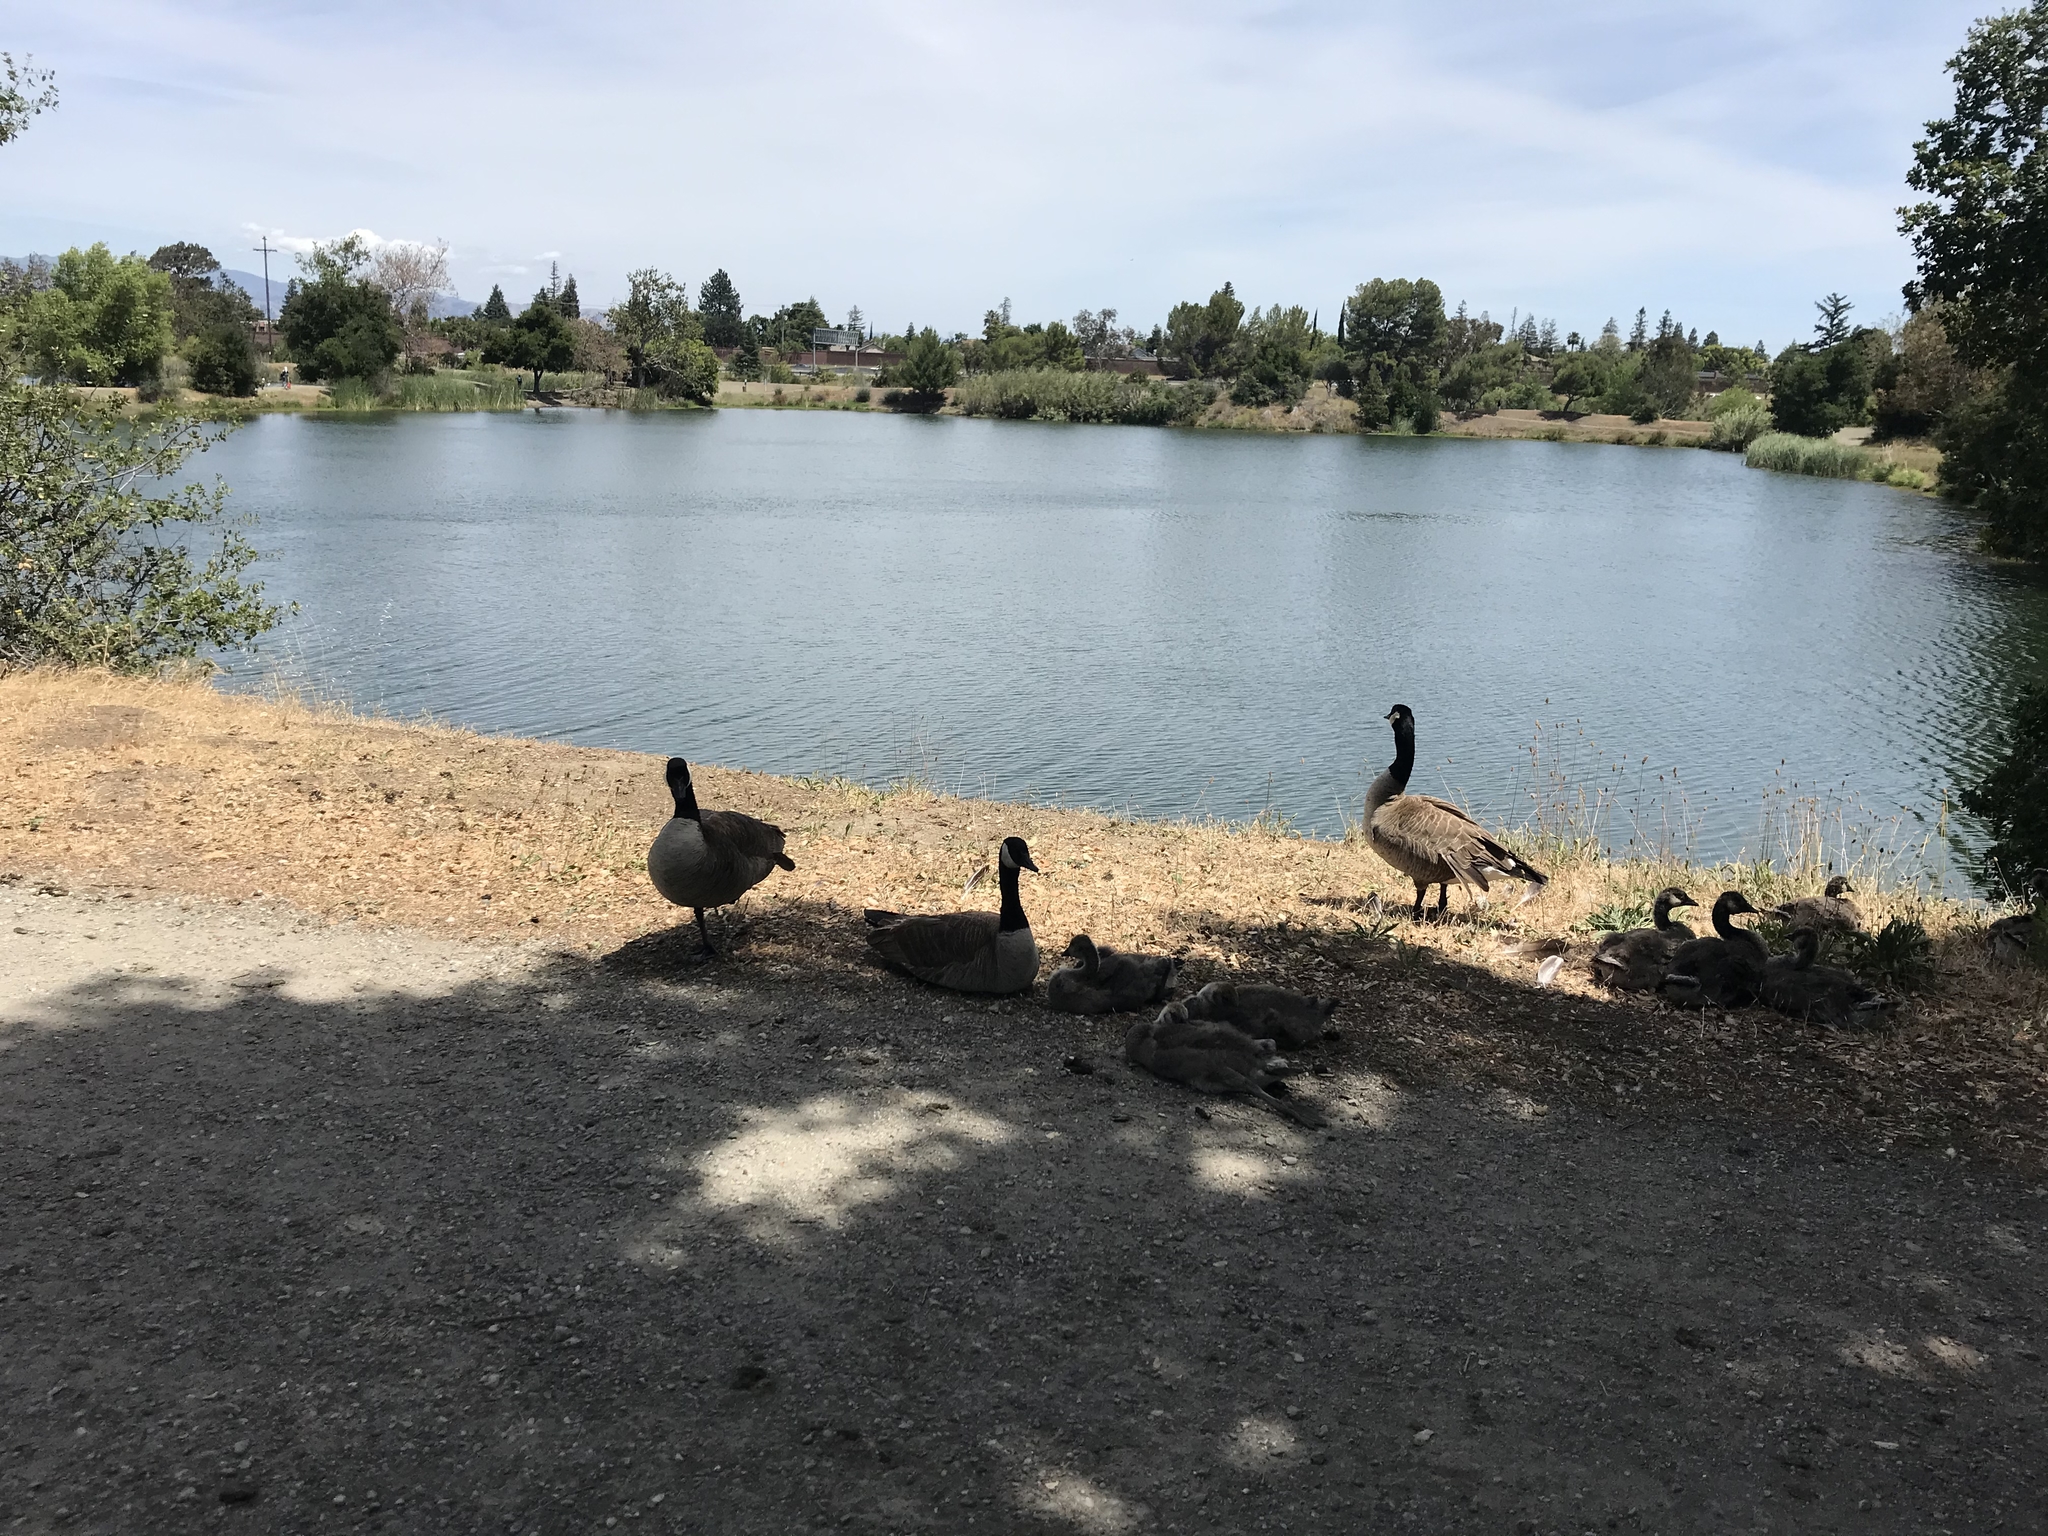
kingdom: Animalia
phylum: Chordata
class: Aves
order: Anseriformes
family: Anatidae
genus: Branta
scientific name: Branta canadensis
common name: Canada goose
